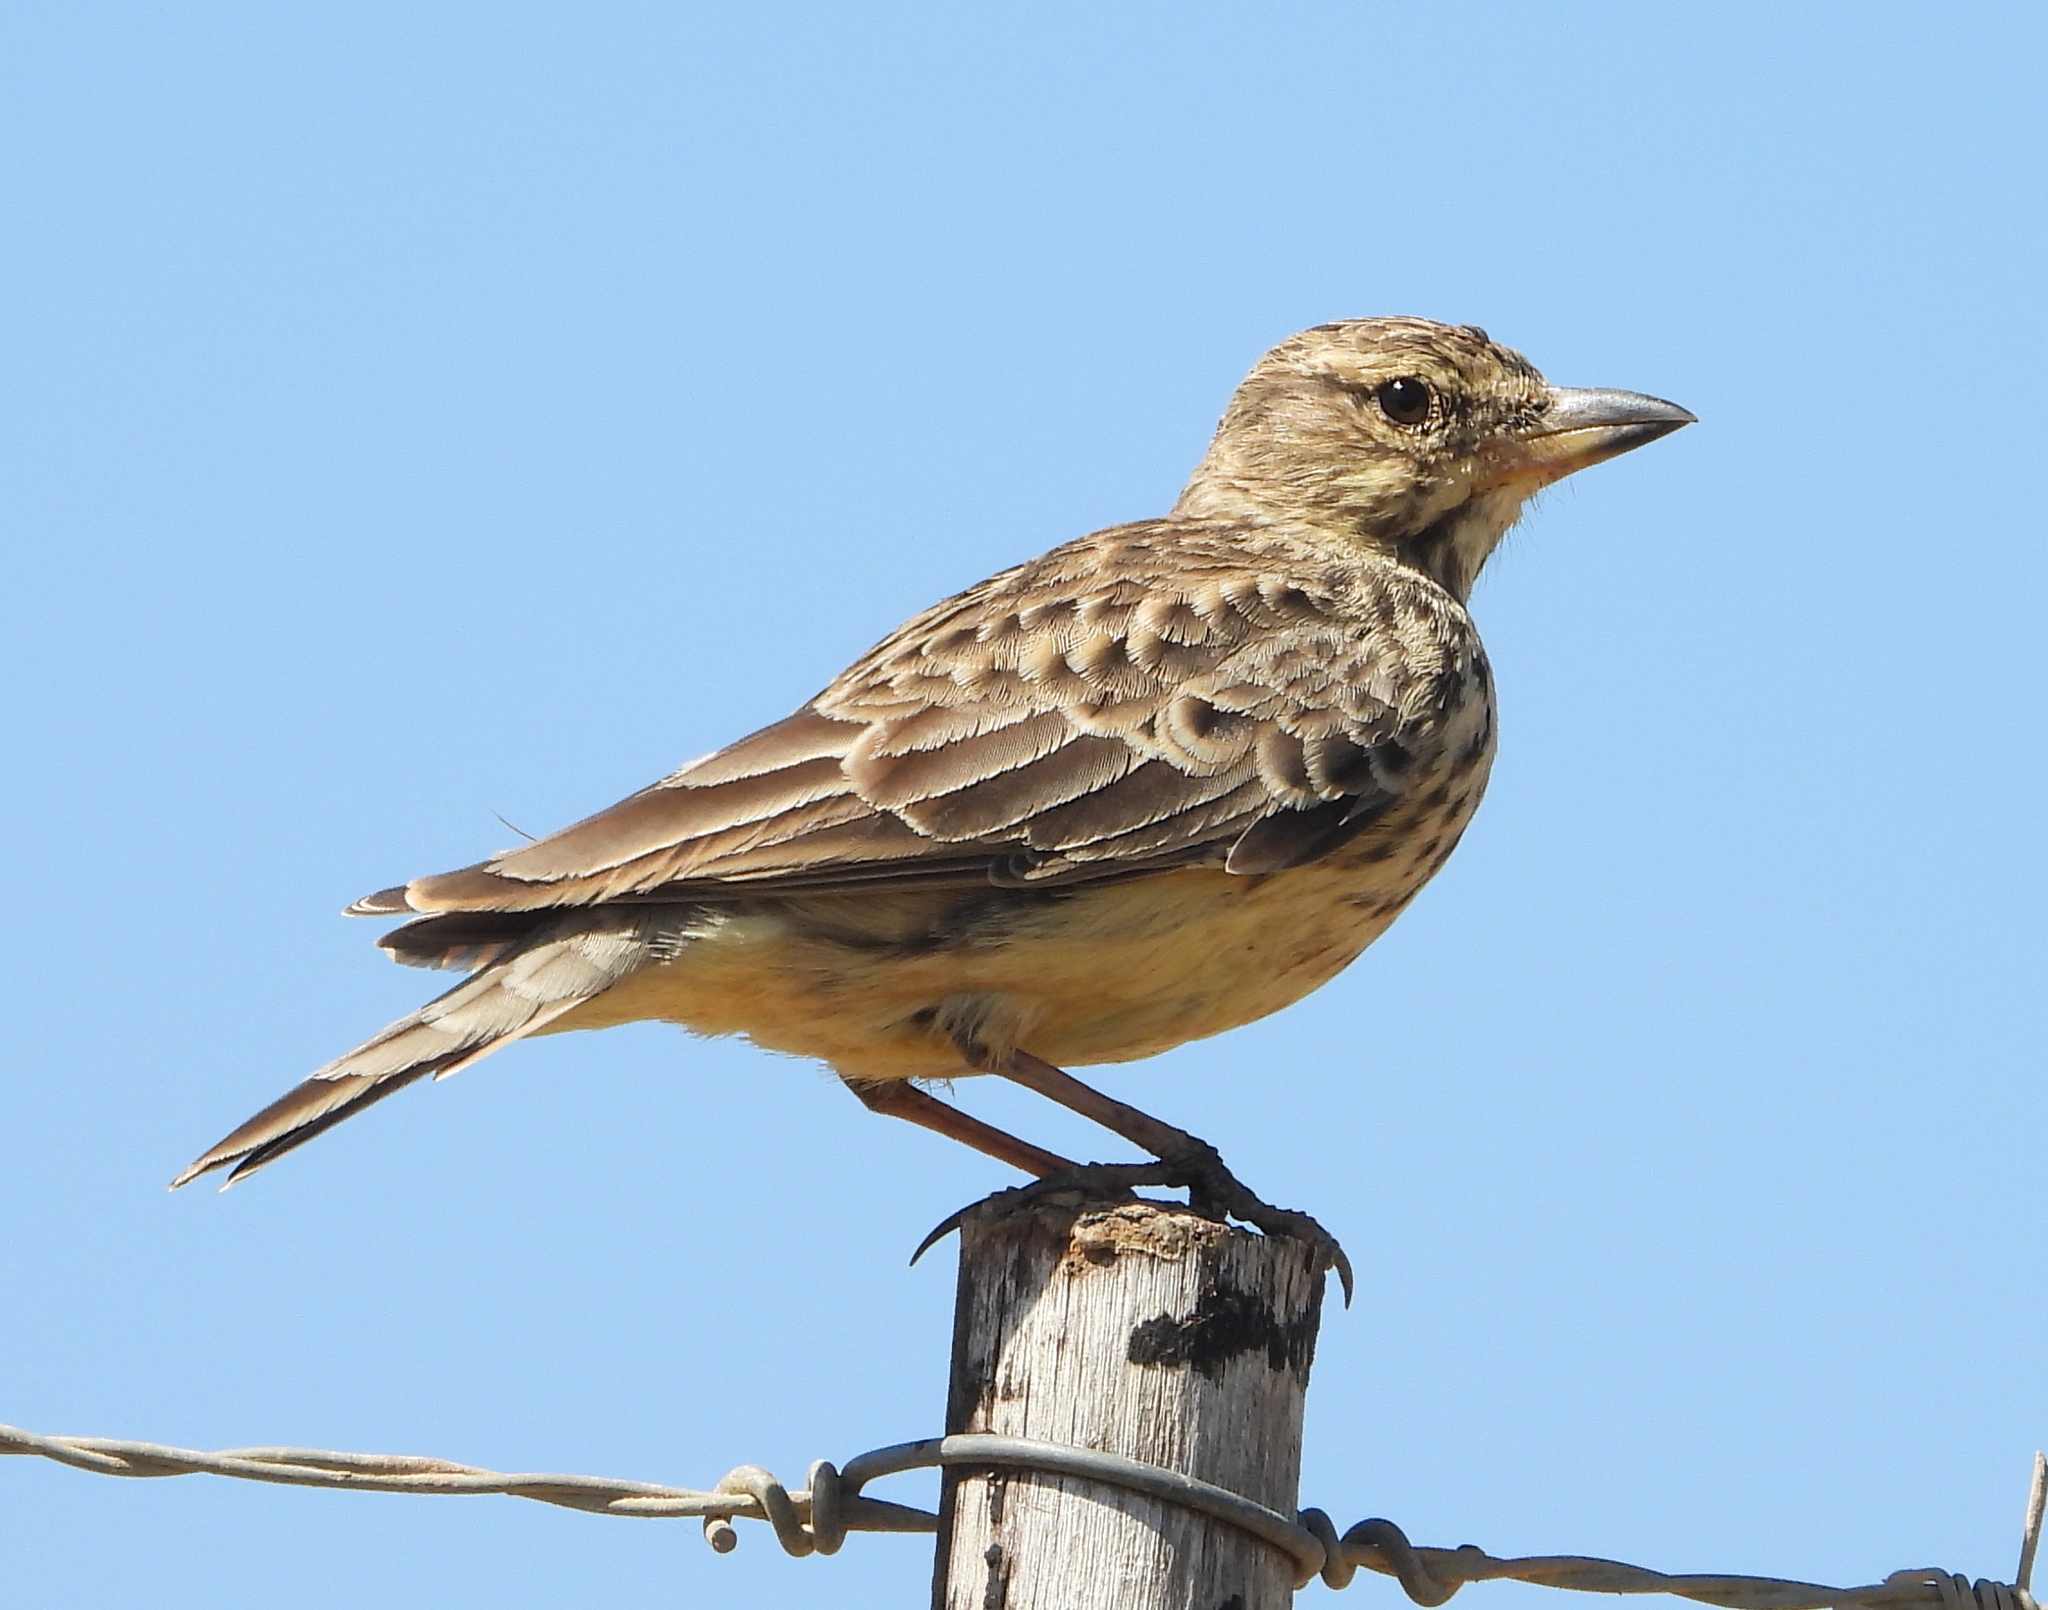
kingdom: Animalia
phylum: Chordata
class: Aves
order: Passeriformes
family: Alaudidae
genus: Galerida
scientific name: Galerida magnirostris
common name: Large-billed lark
